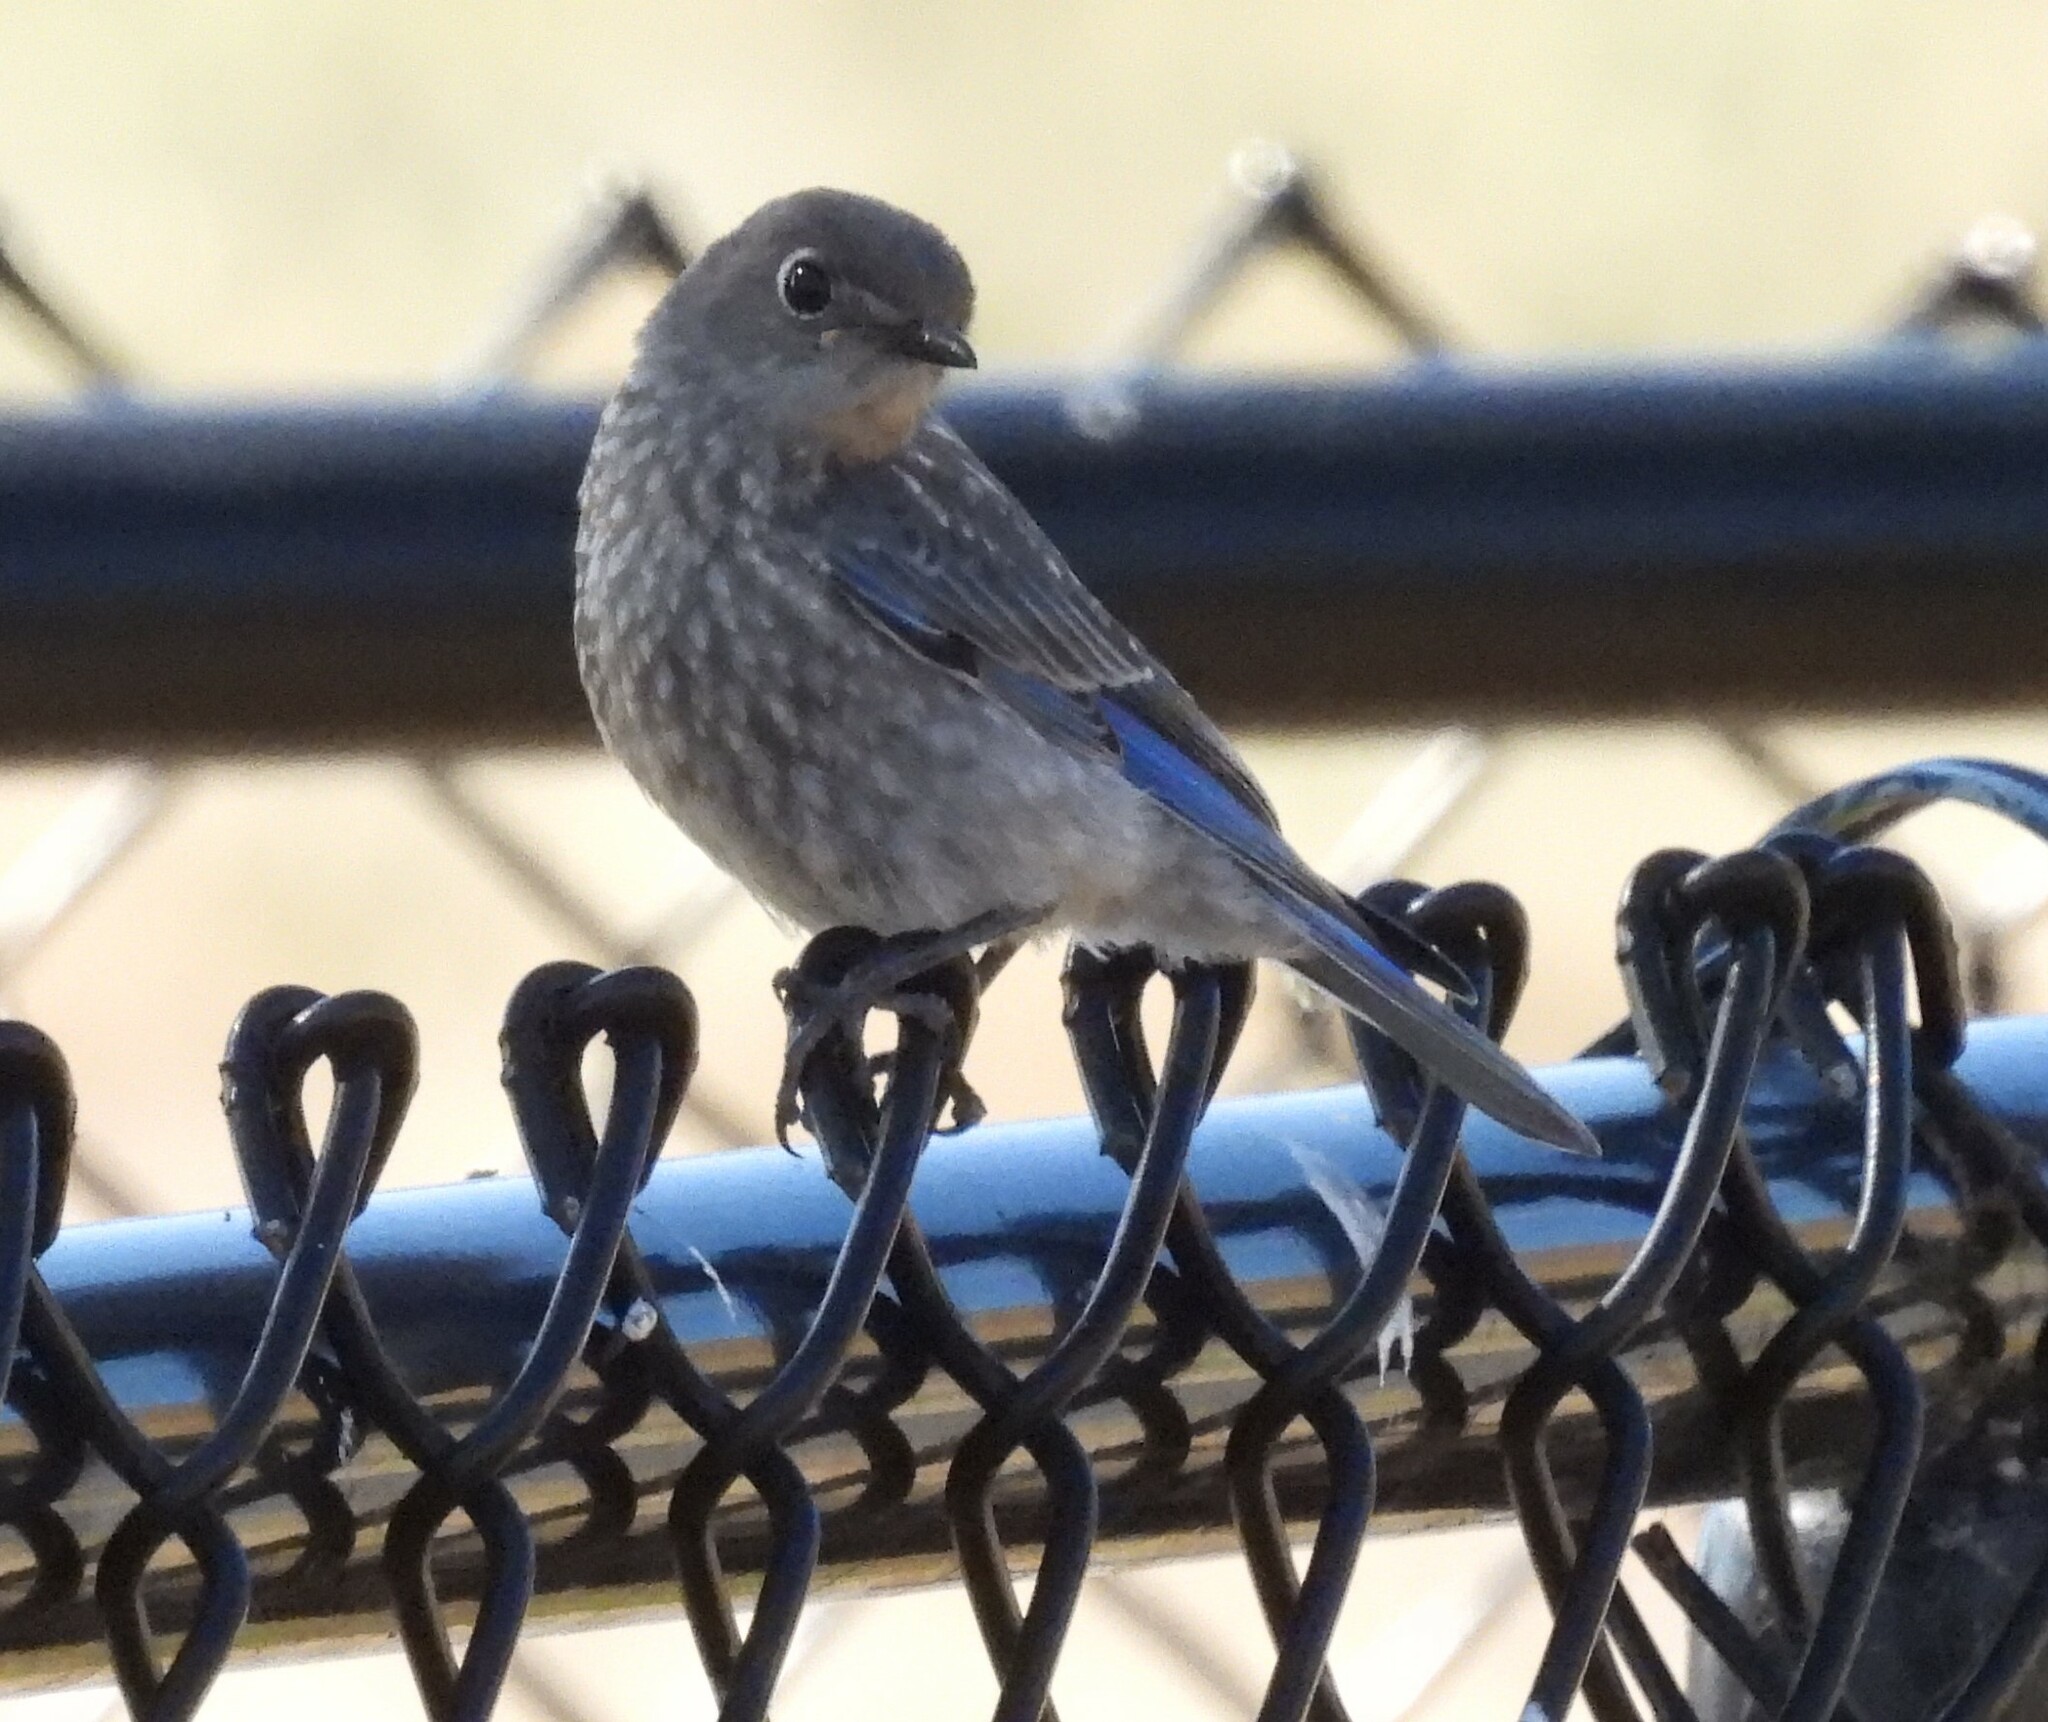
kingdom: Animalia
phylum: Chordata
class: Aves
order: Passeriformes
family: Turdidae
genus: Sialia
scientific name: Sialia mexicana
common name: Western bluebird
